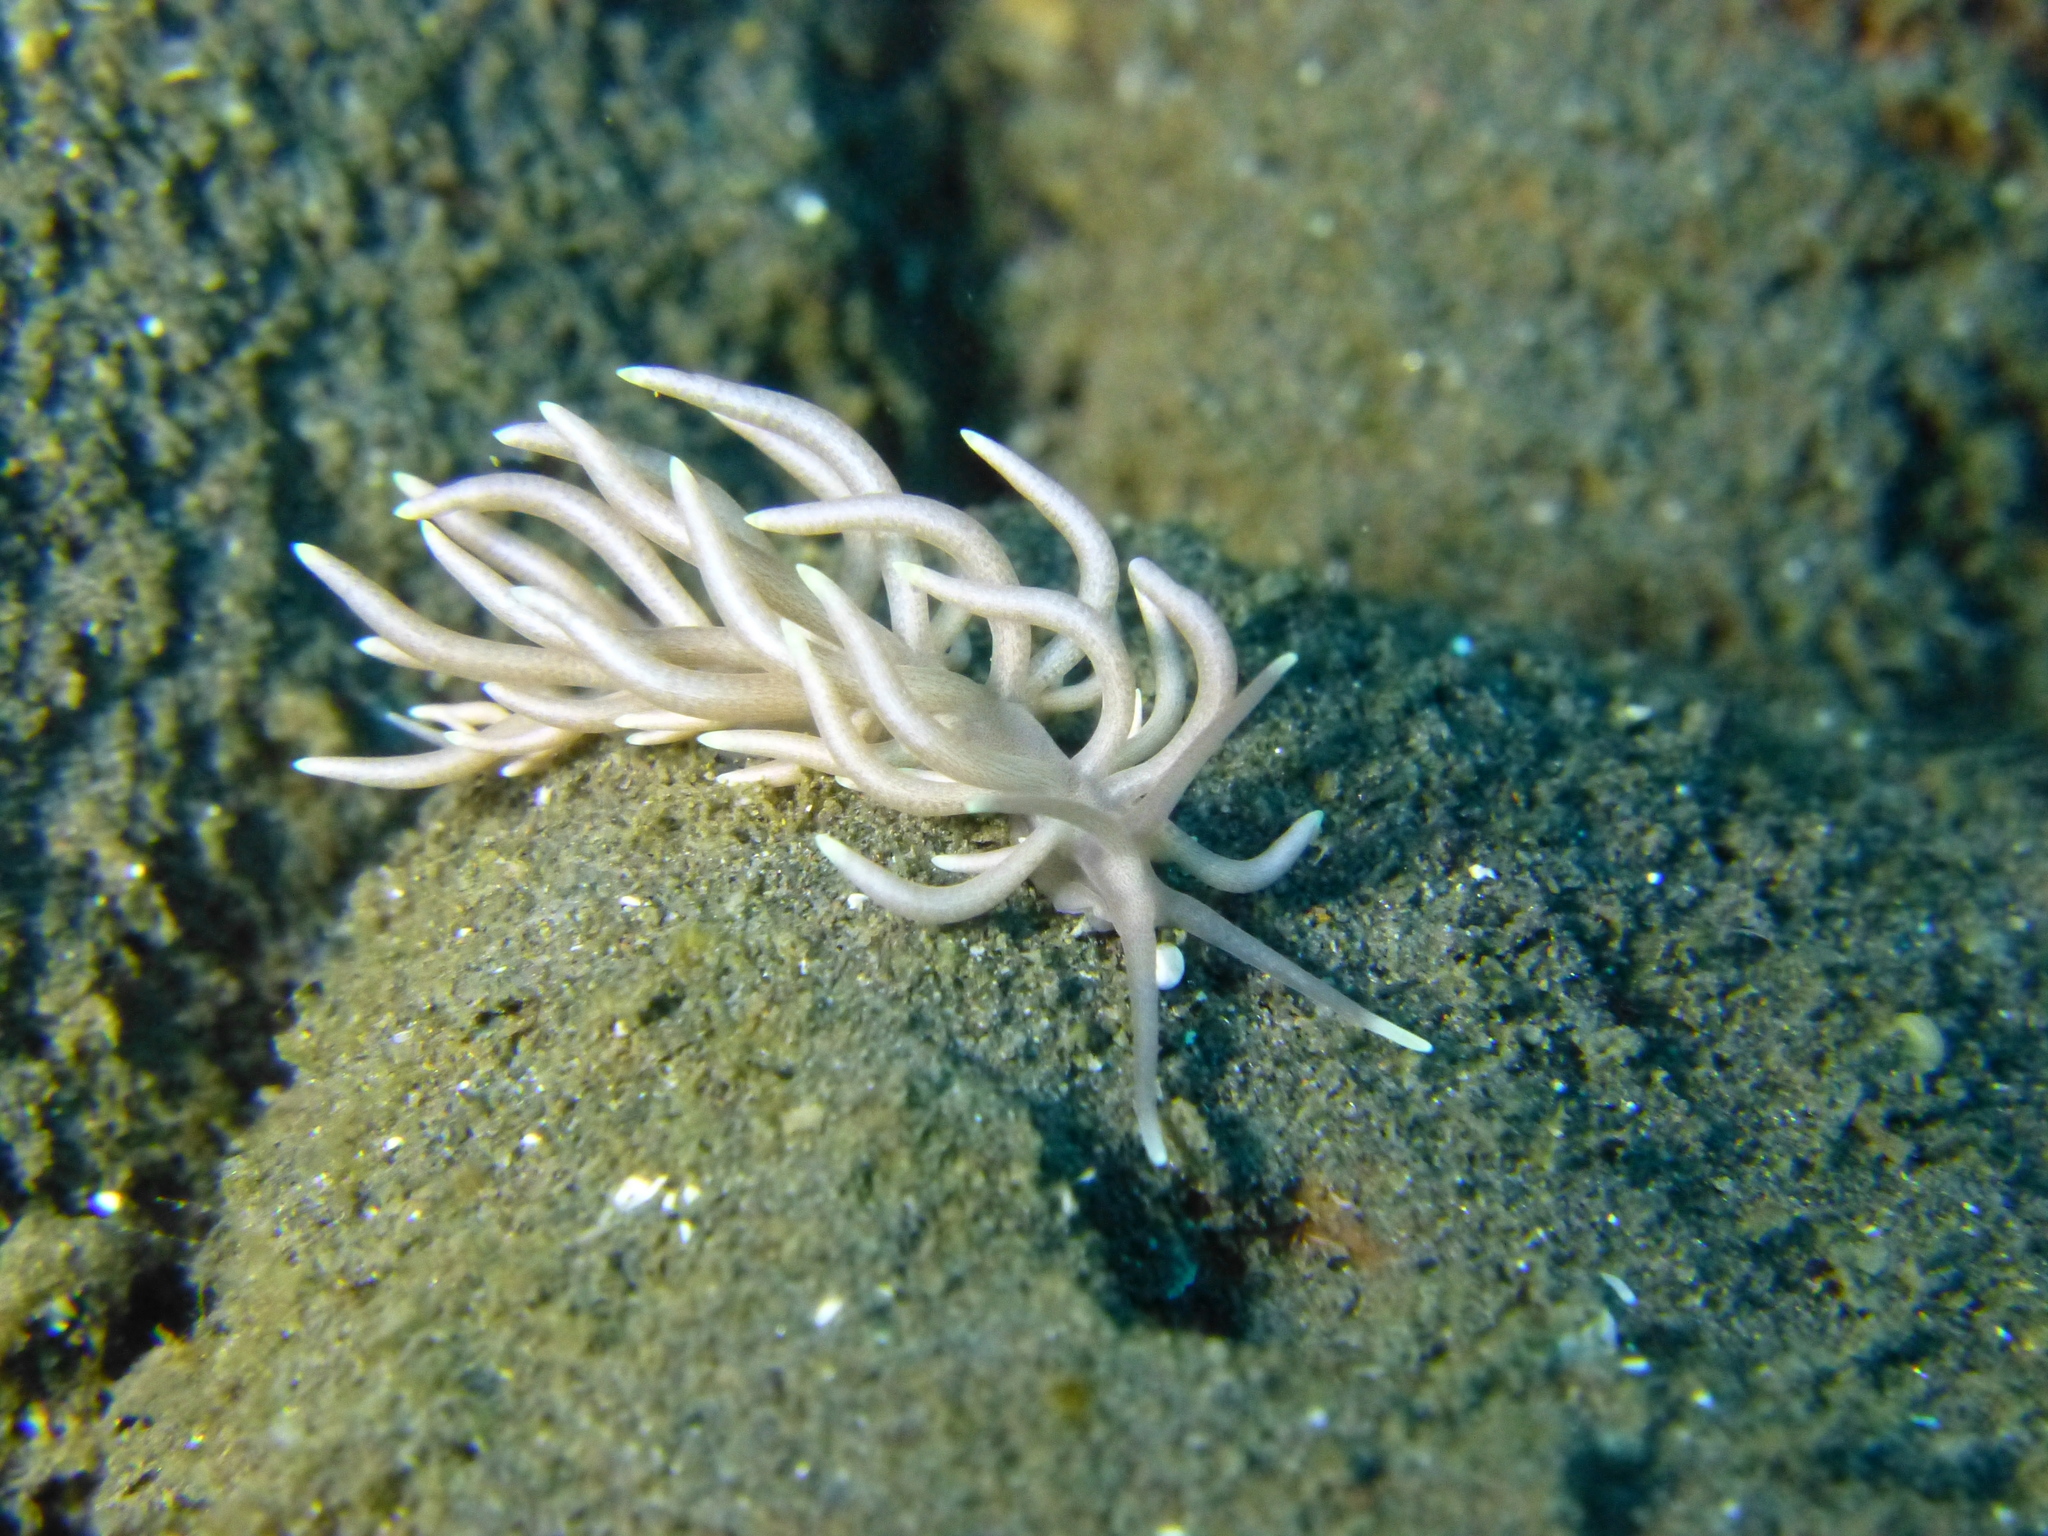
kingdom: Animalia
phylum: Mollusca
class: Gastropoda
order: Nudibranchia
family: Myrrhinidae
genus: Phyllodesmium
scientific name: Phyllodesmium briareum
